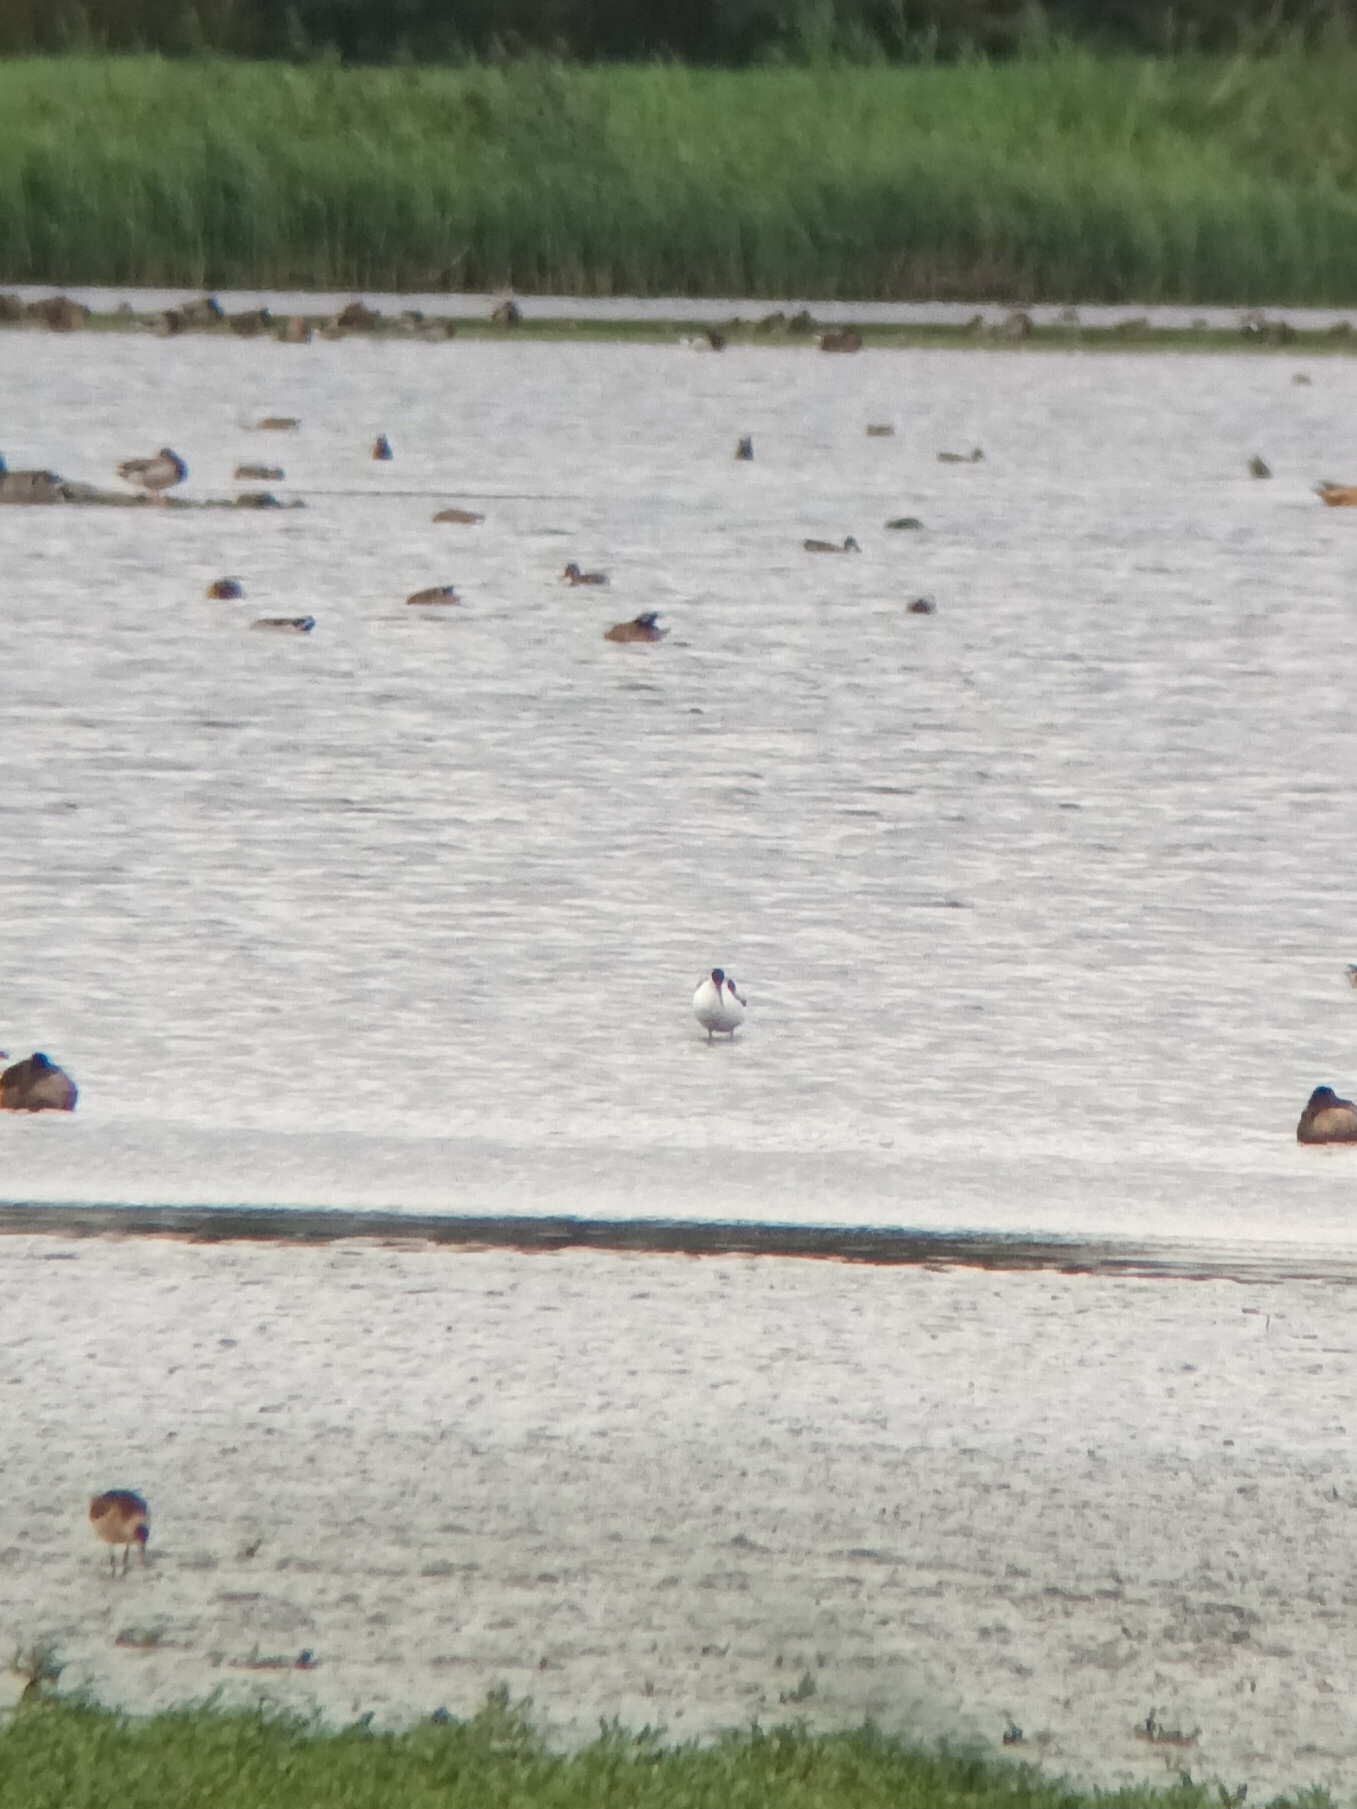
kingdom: Animalia
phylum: Chordata
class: Aves
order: Charadriiformes
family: Recurvirostridae
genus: Recurvirostra
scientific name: Recurvirostra avosetta
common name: Pied avocet
